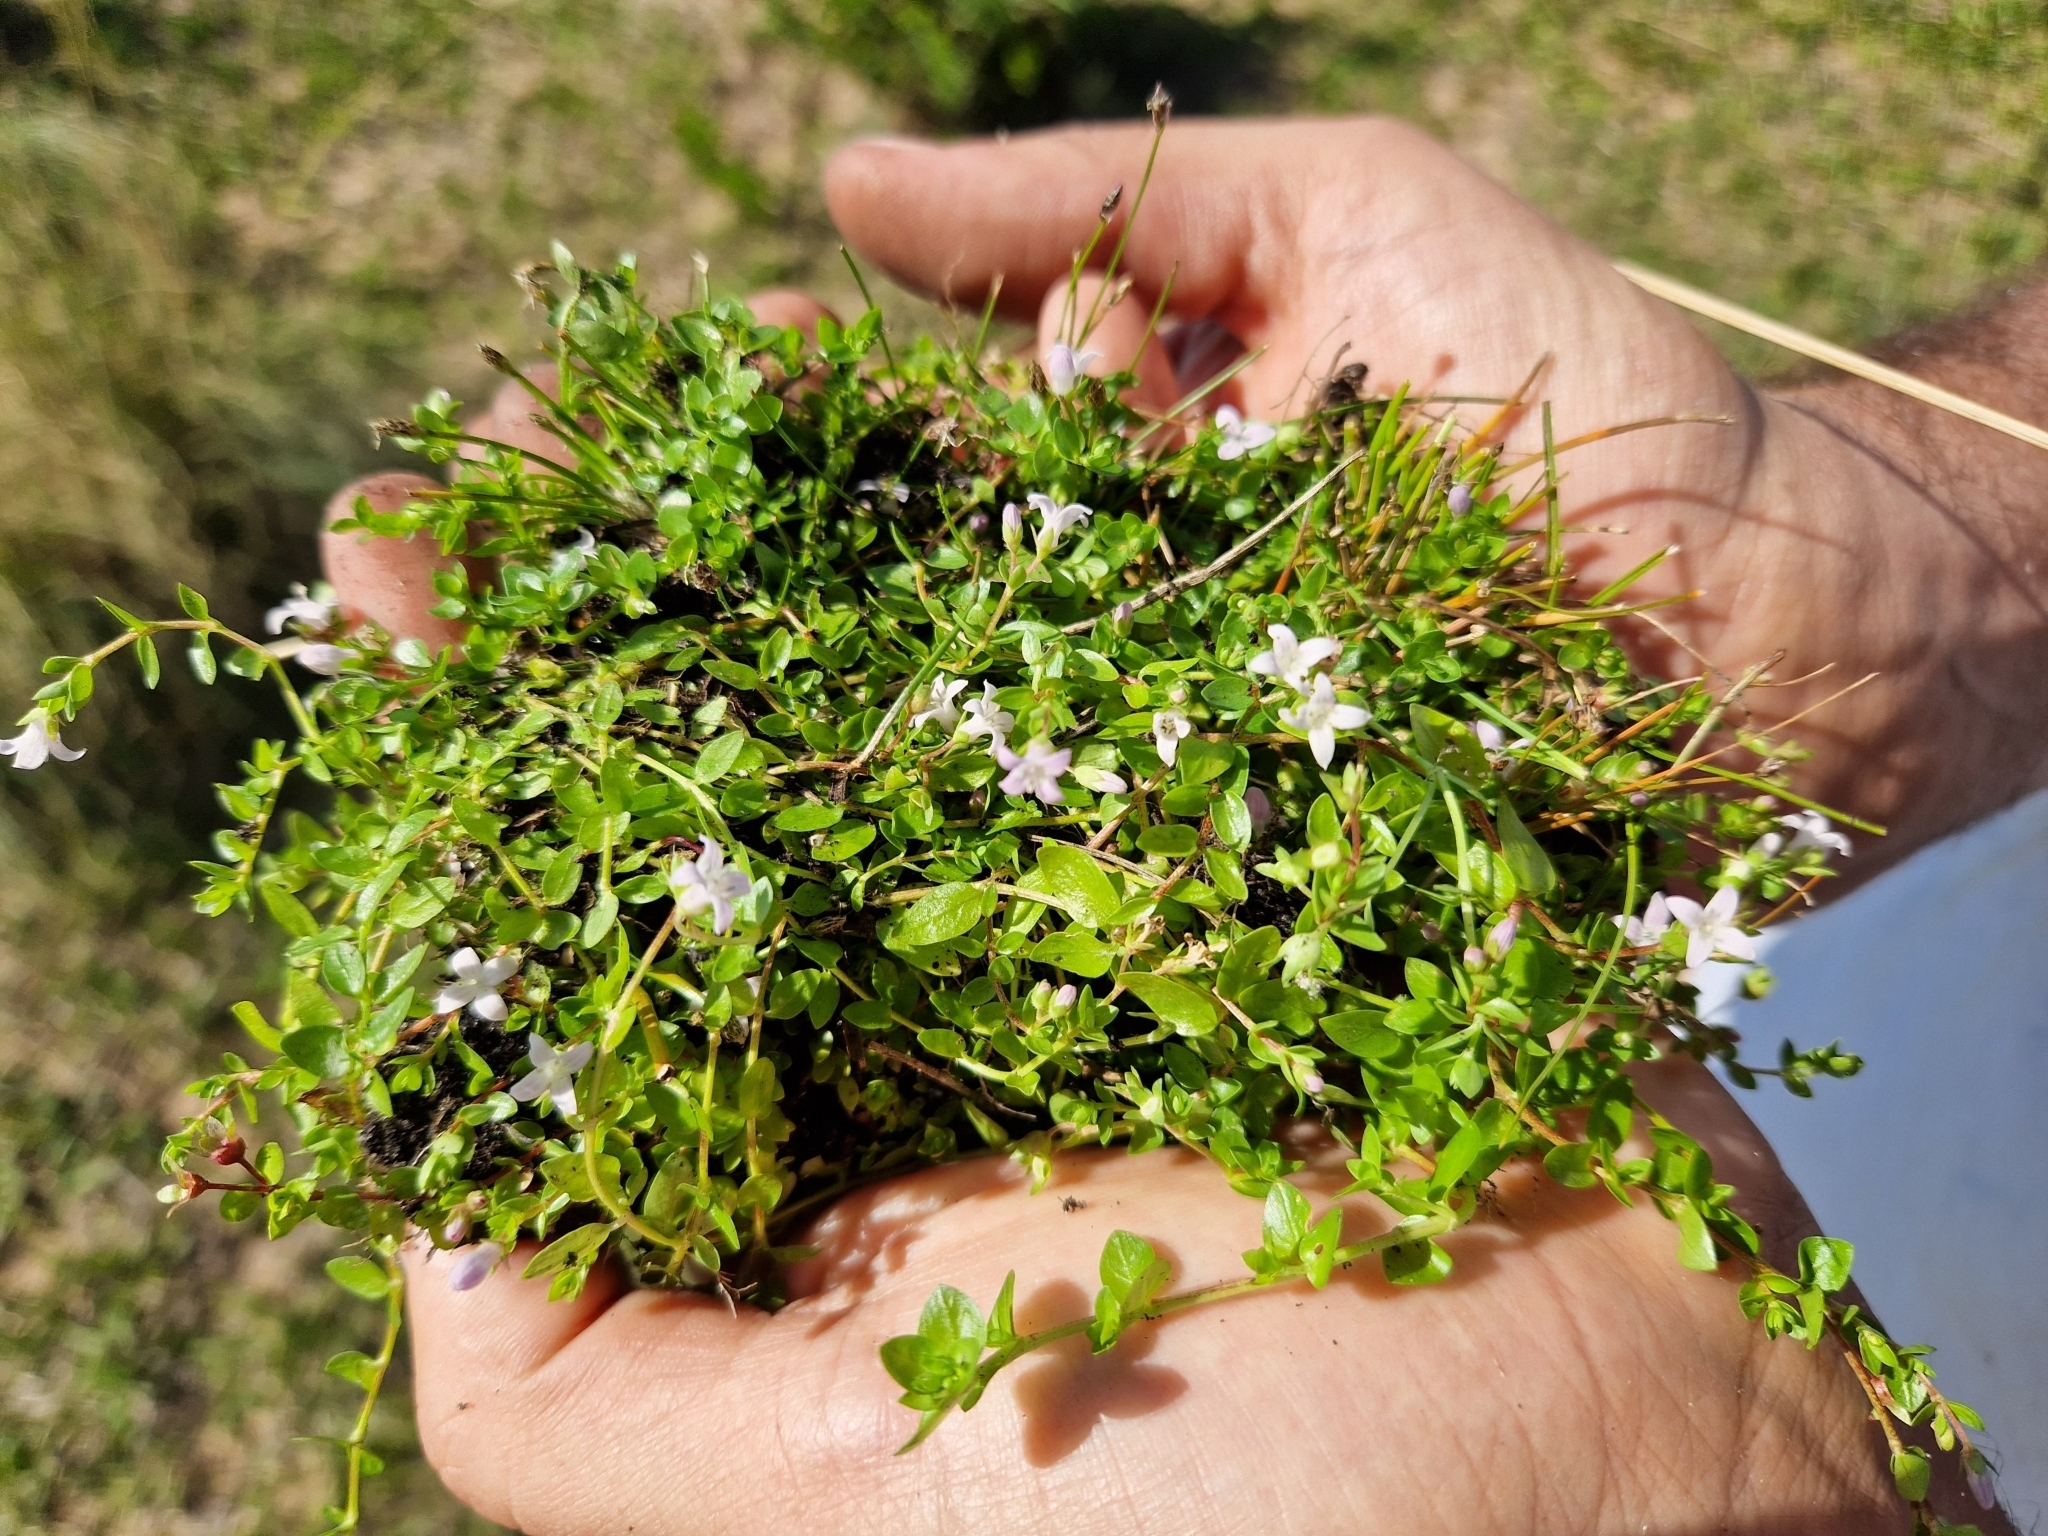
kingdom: Plantae
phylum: Tracheophyta
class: Magnoliopsida
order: Gentianales
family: Rubiaceae
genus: Oldenlandia
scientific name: Oldenlandia salzmannii
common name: Salzmann's mille graines
